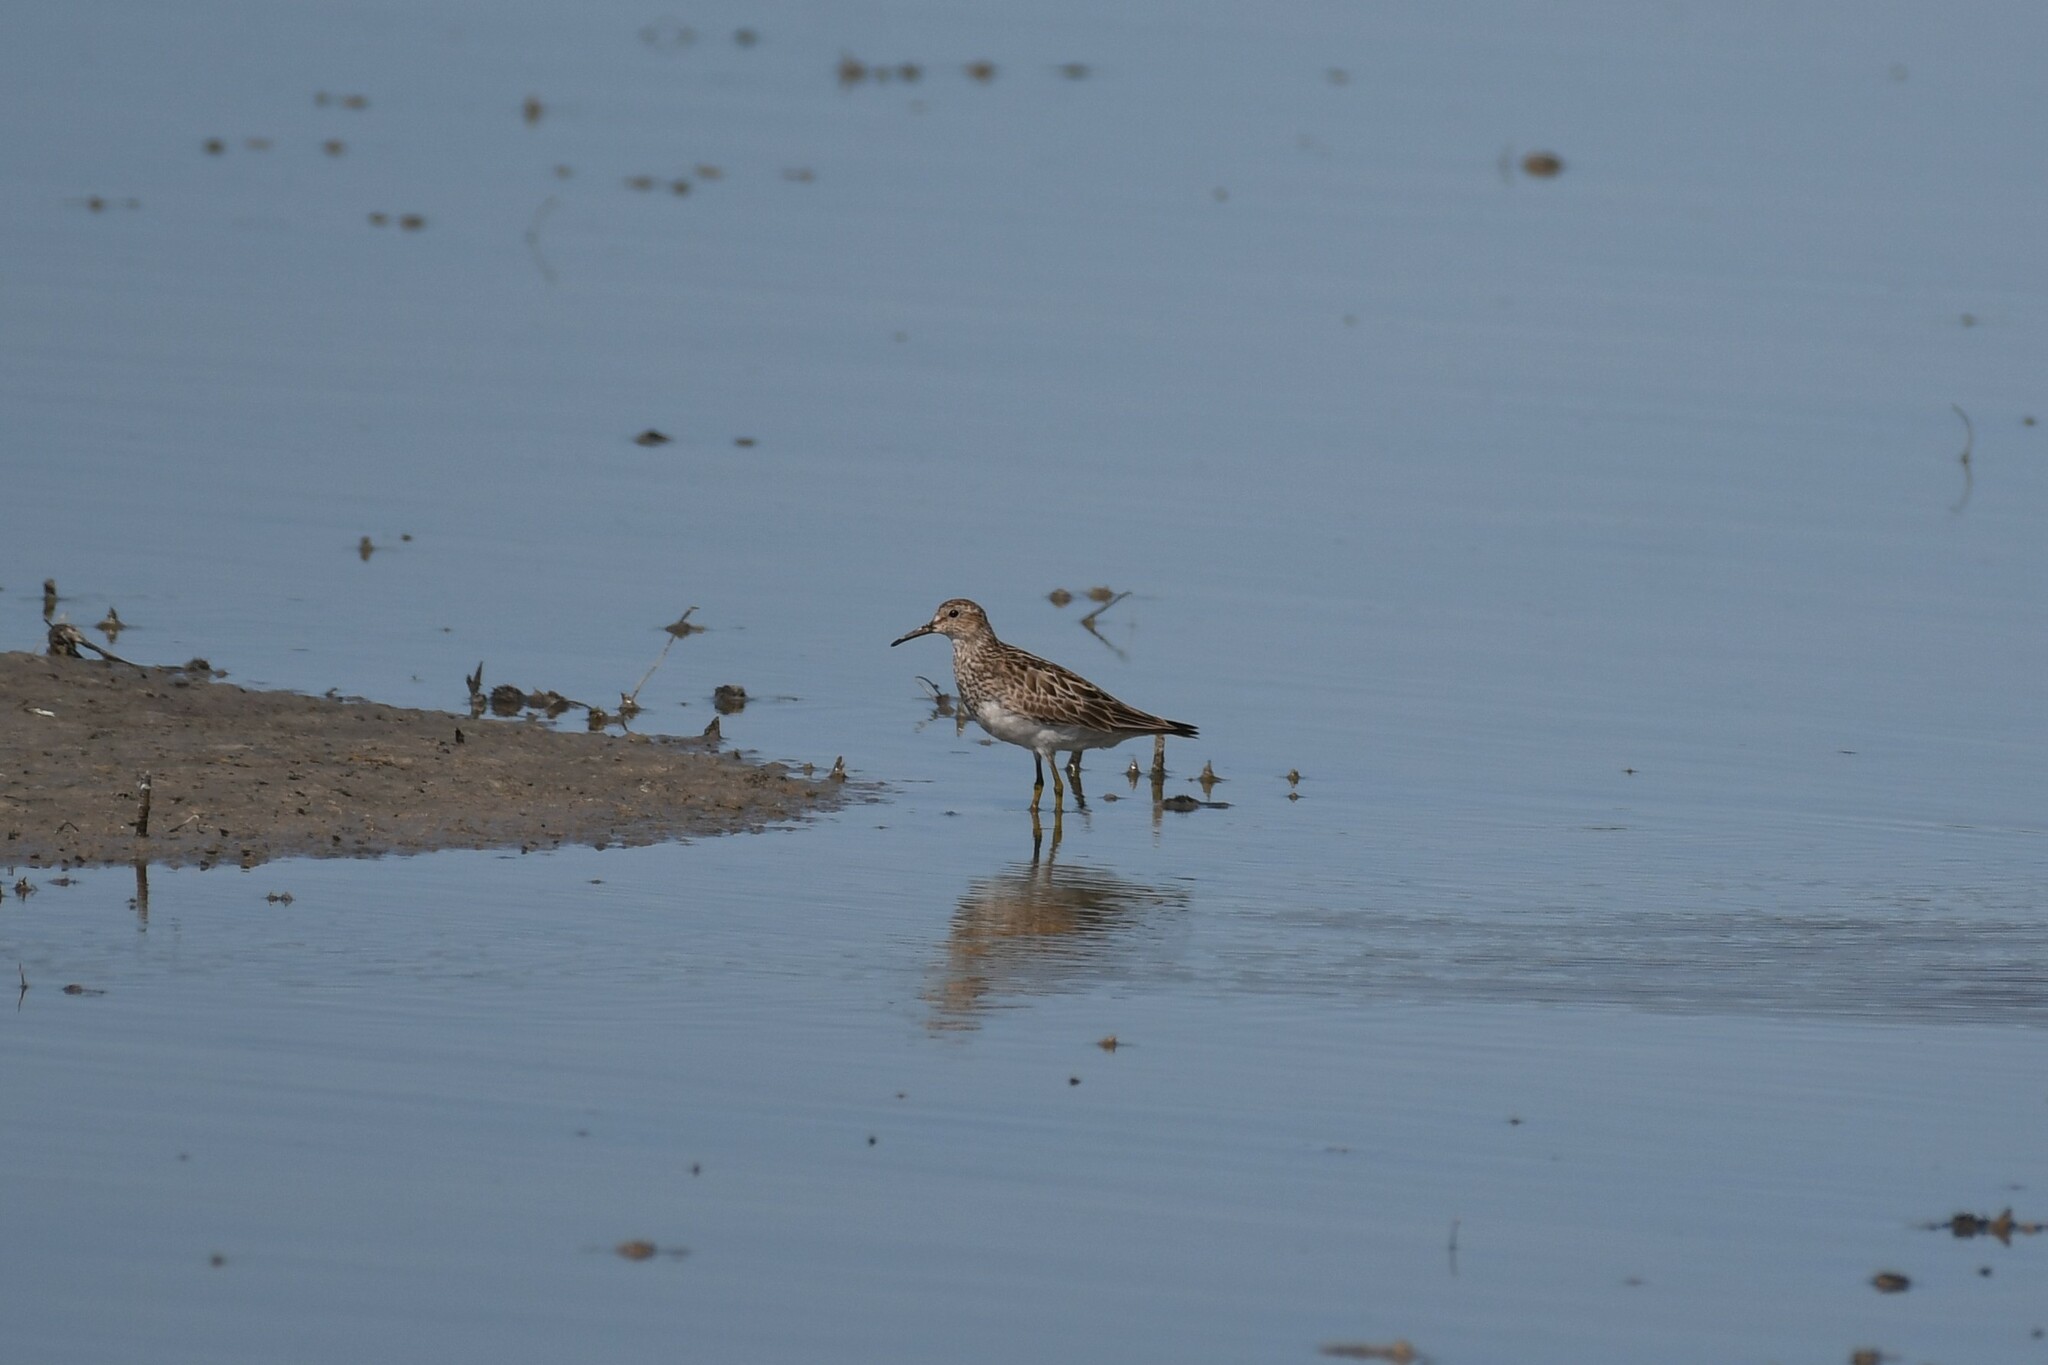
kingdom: Animalia
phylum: Chordata
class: Aves
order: Charadriiformes
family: Scolopacidae
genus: Calidris
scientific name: Calidris melanotos
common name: Pectoral sandpiper
